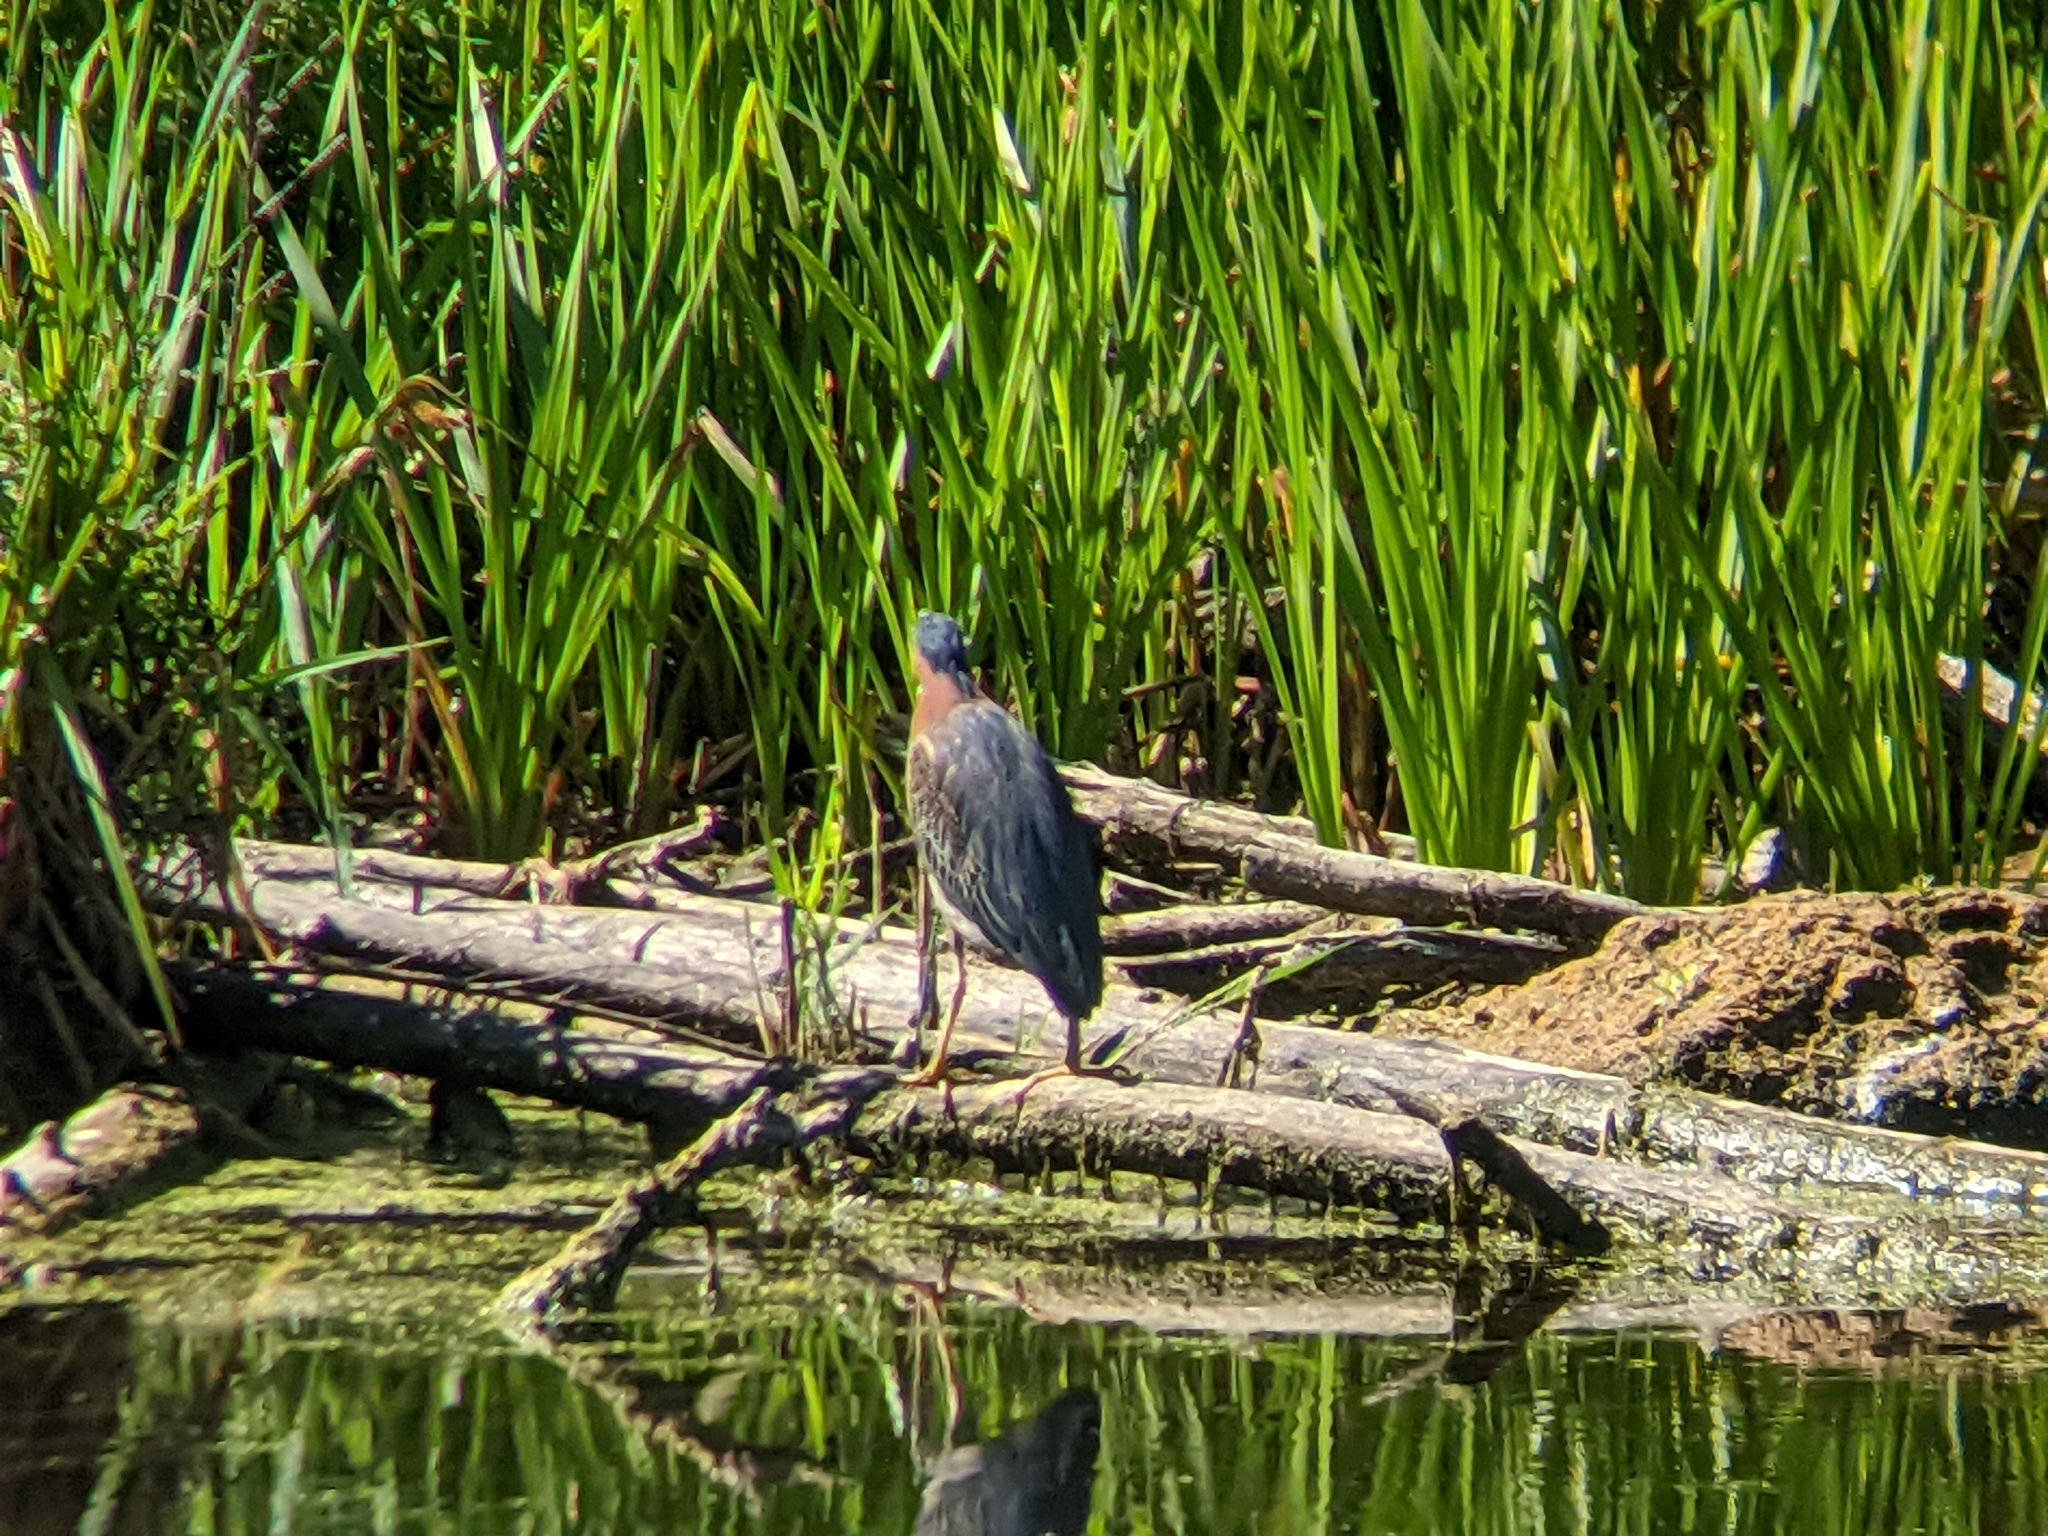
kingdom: Animalia
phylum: Chordata
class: Aves
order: Pelecaniformes
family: Ardeidae
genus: Butorides
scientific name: Butorides virescens
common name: Green heron
